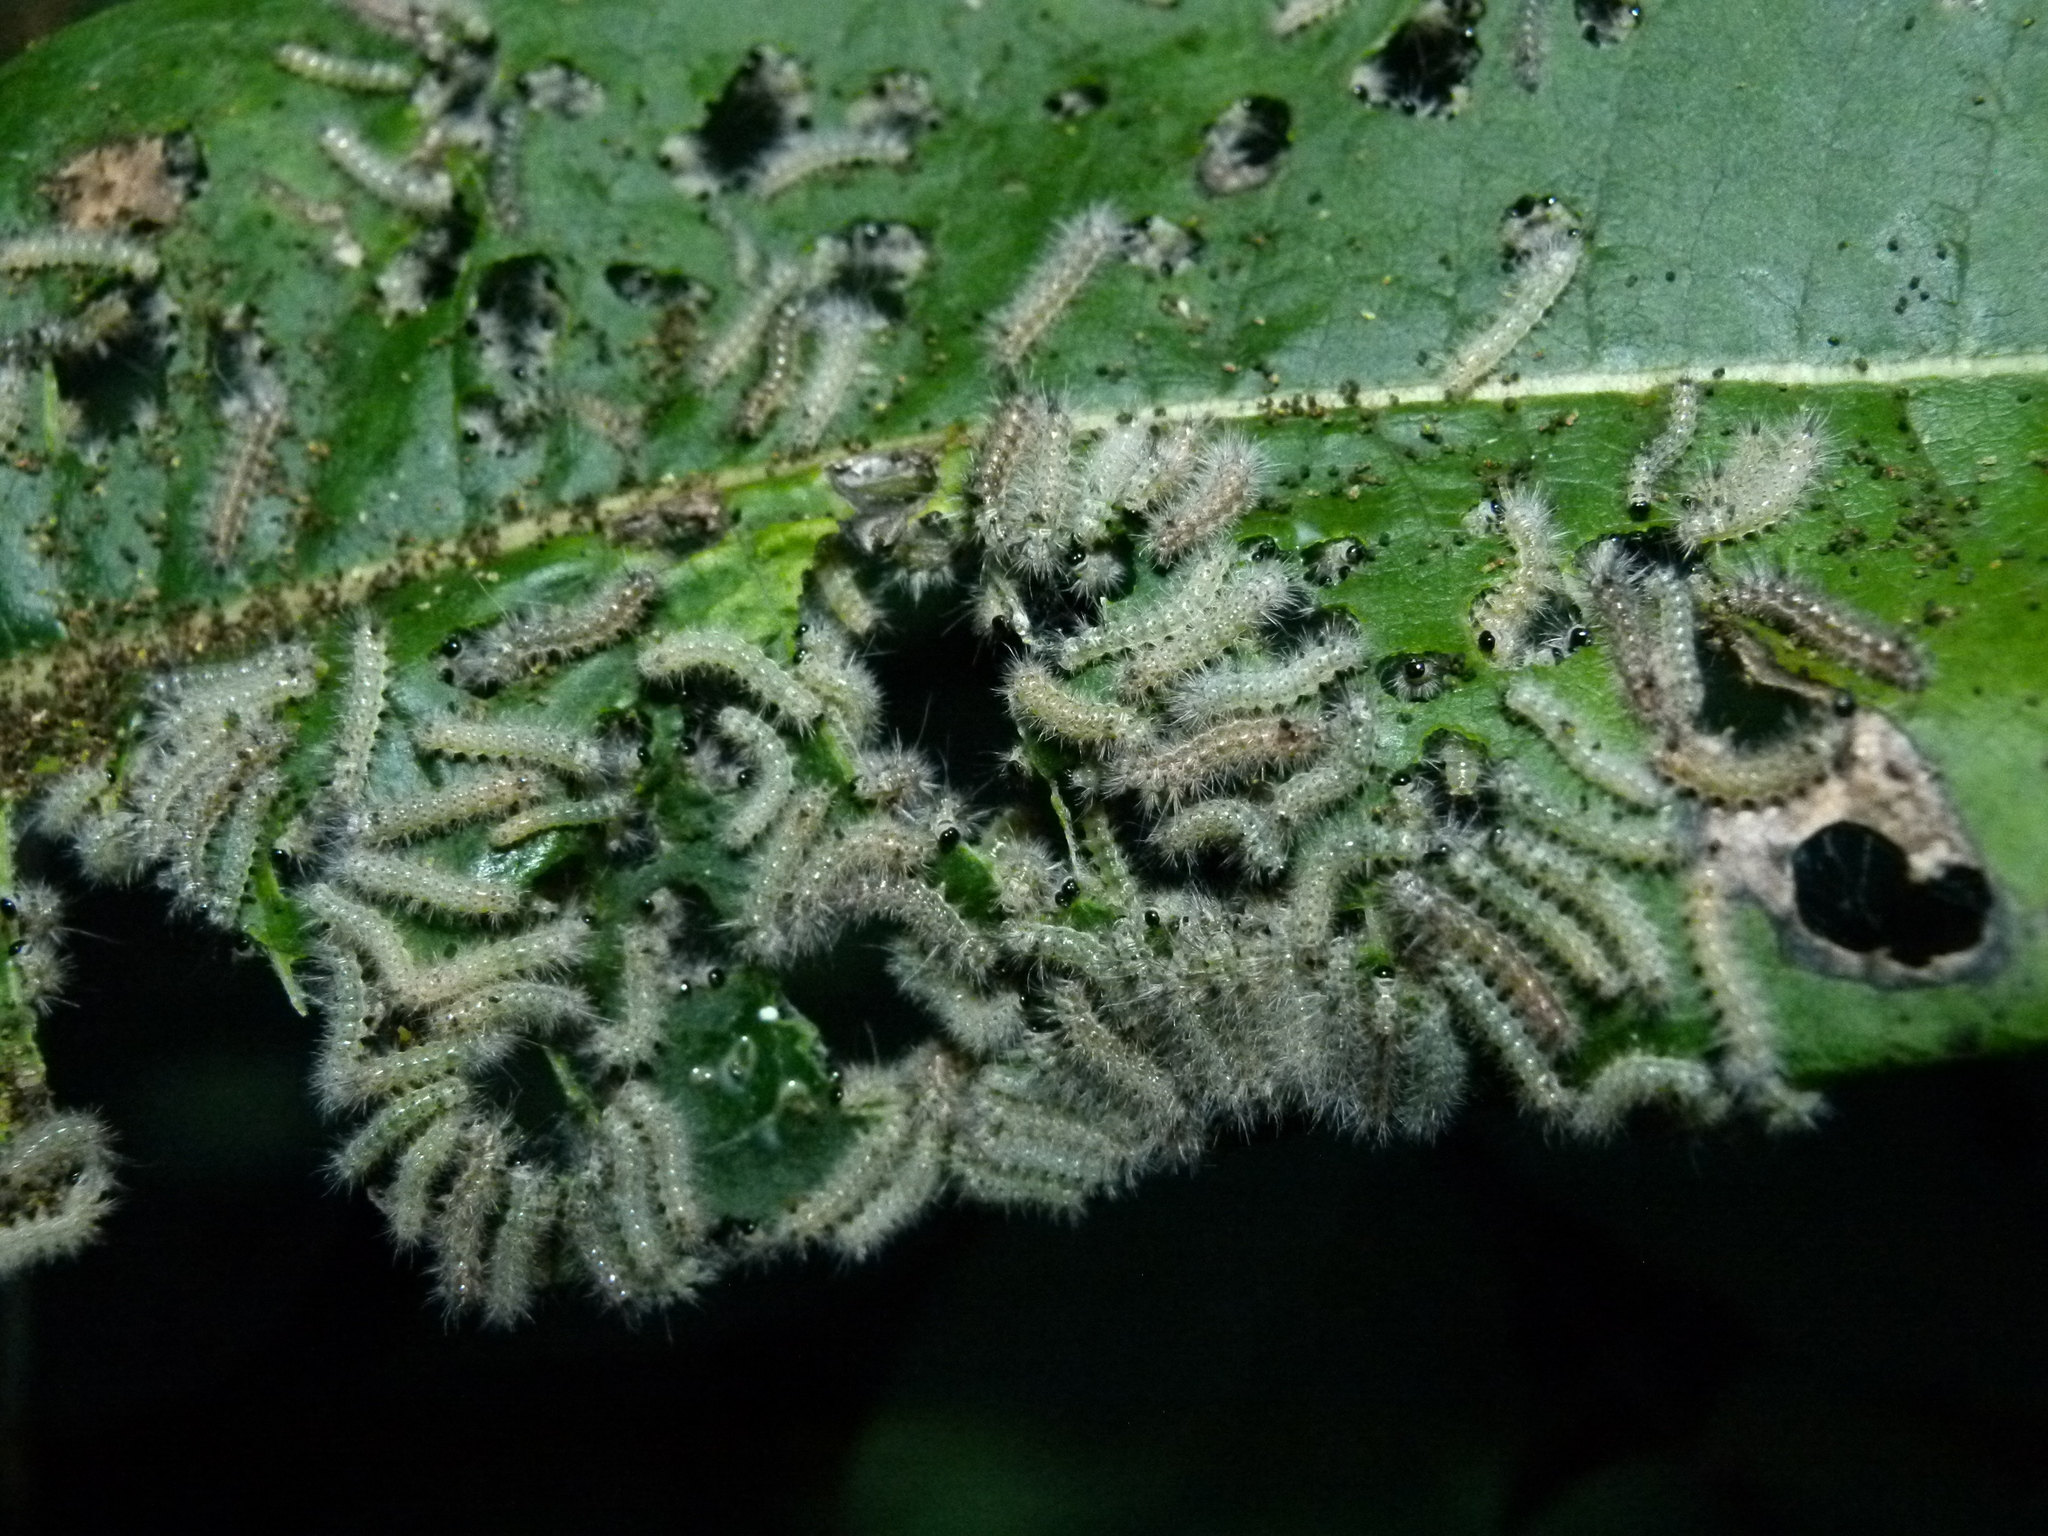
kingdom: Animalia
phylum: Arthropoda
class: Insecta
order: Lepidoptera
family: Erebidae
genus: Hyphantria
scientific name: Hyphantria cunea
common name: American white moth
